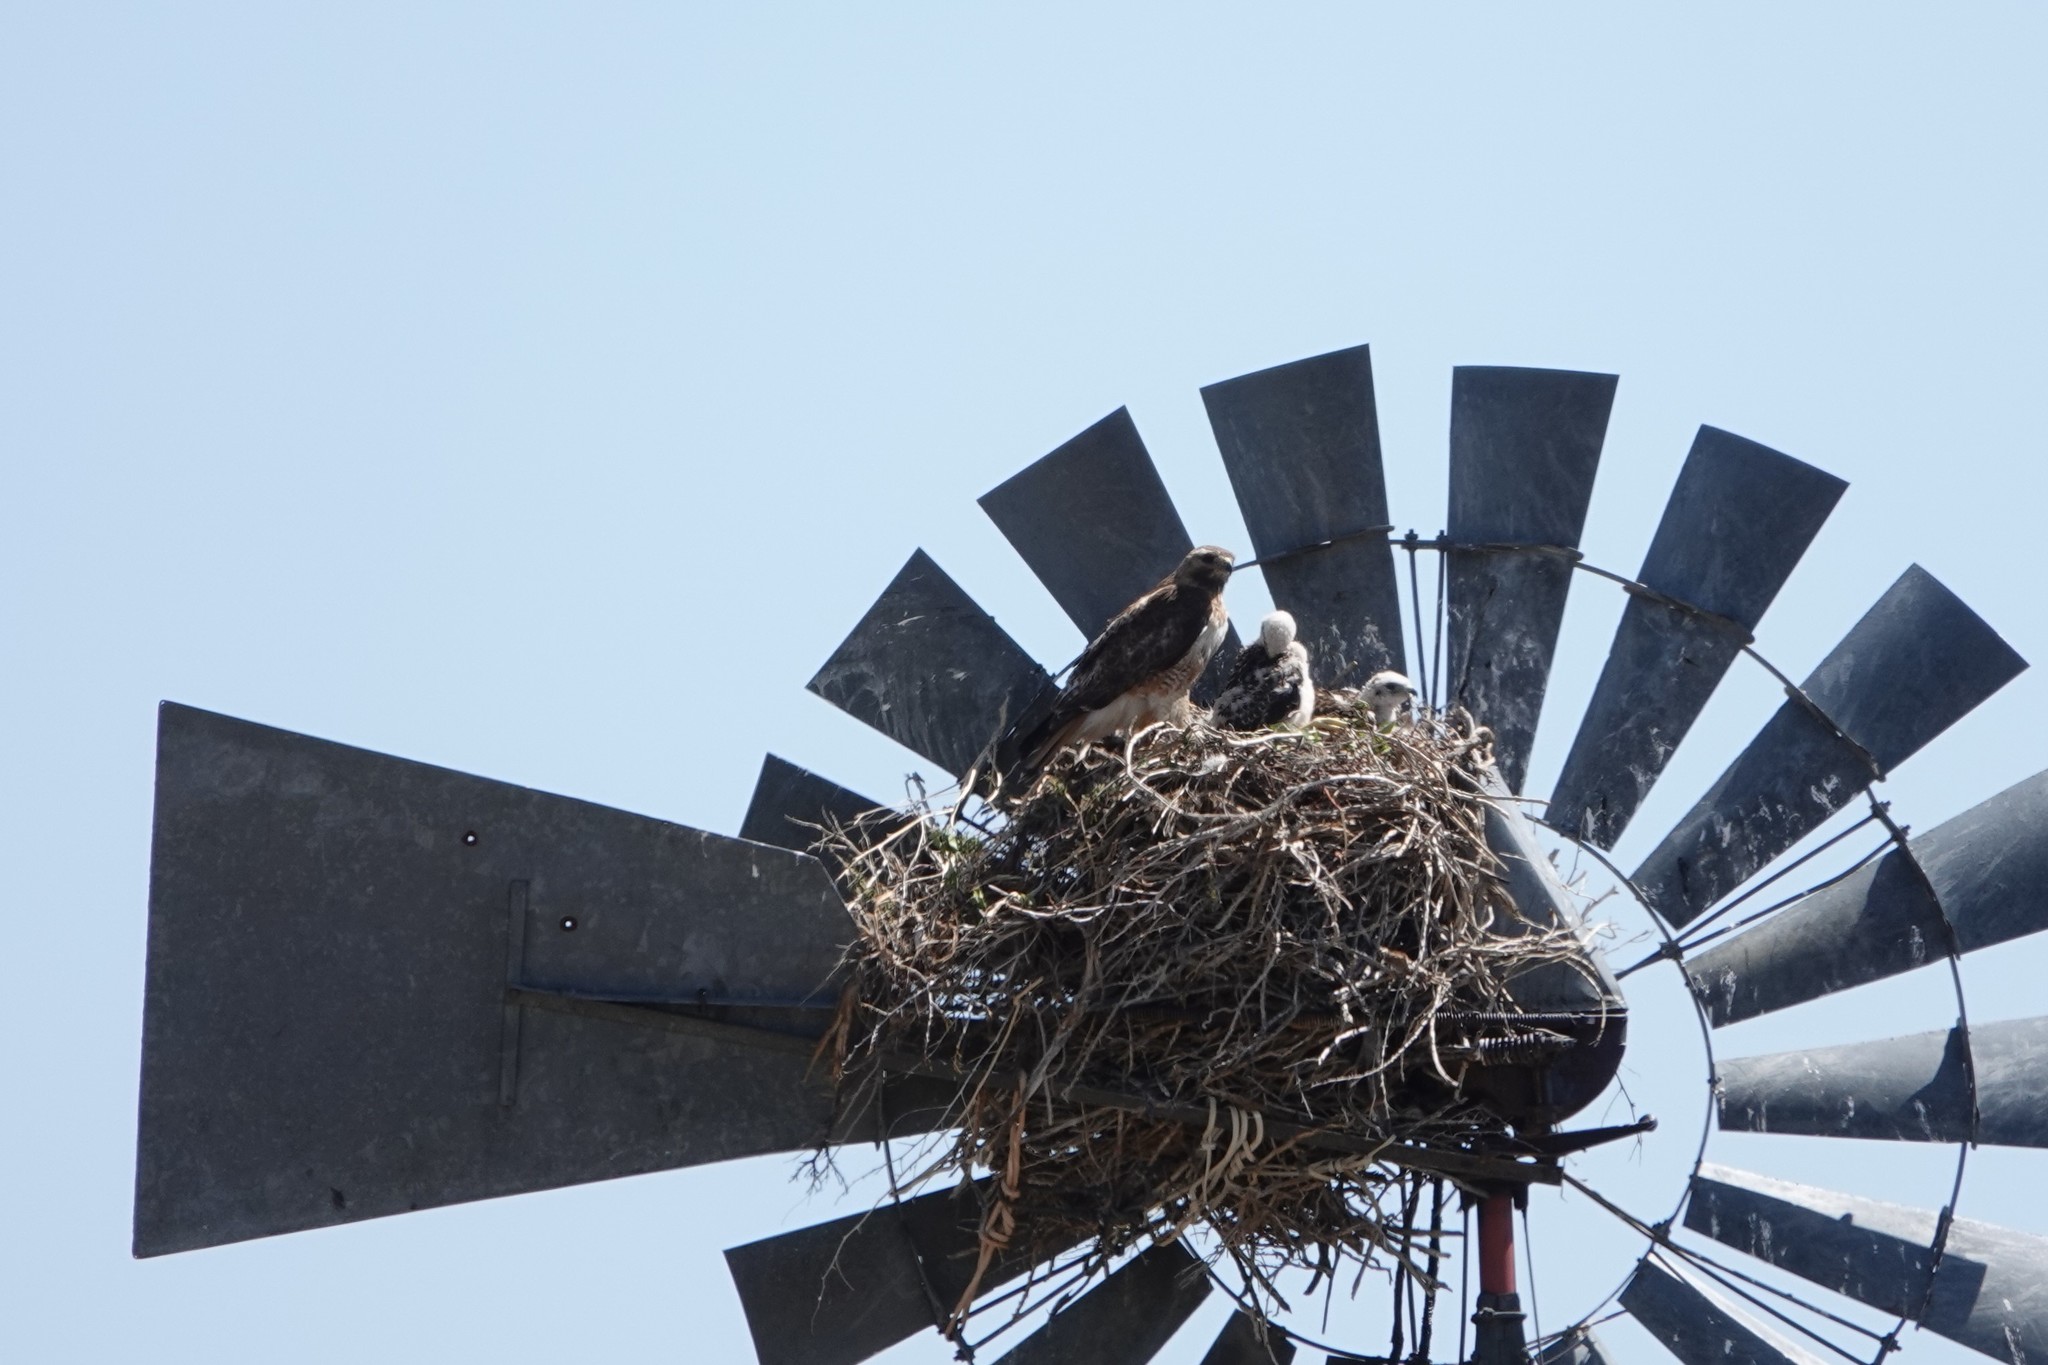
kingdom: Animalia
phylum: Chordata
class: Aves
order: Accipitriformes
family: Accipitridae
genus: Buteo
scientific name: Buteo jamaicensis
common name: Red-tailed hawk
